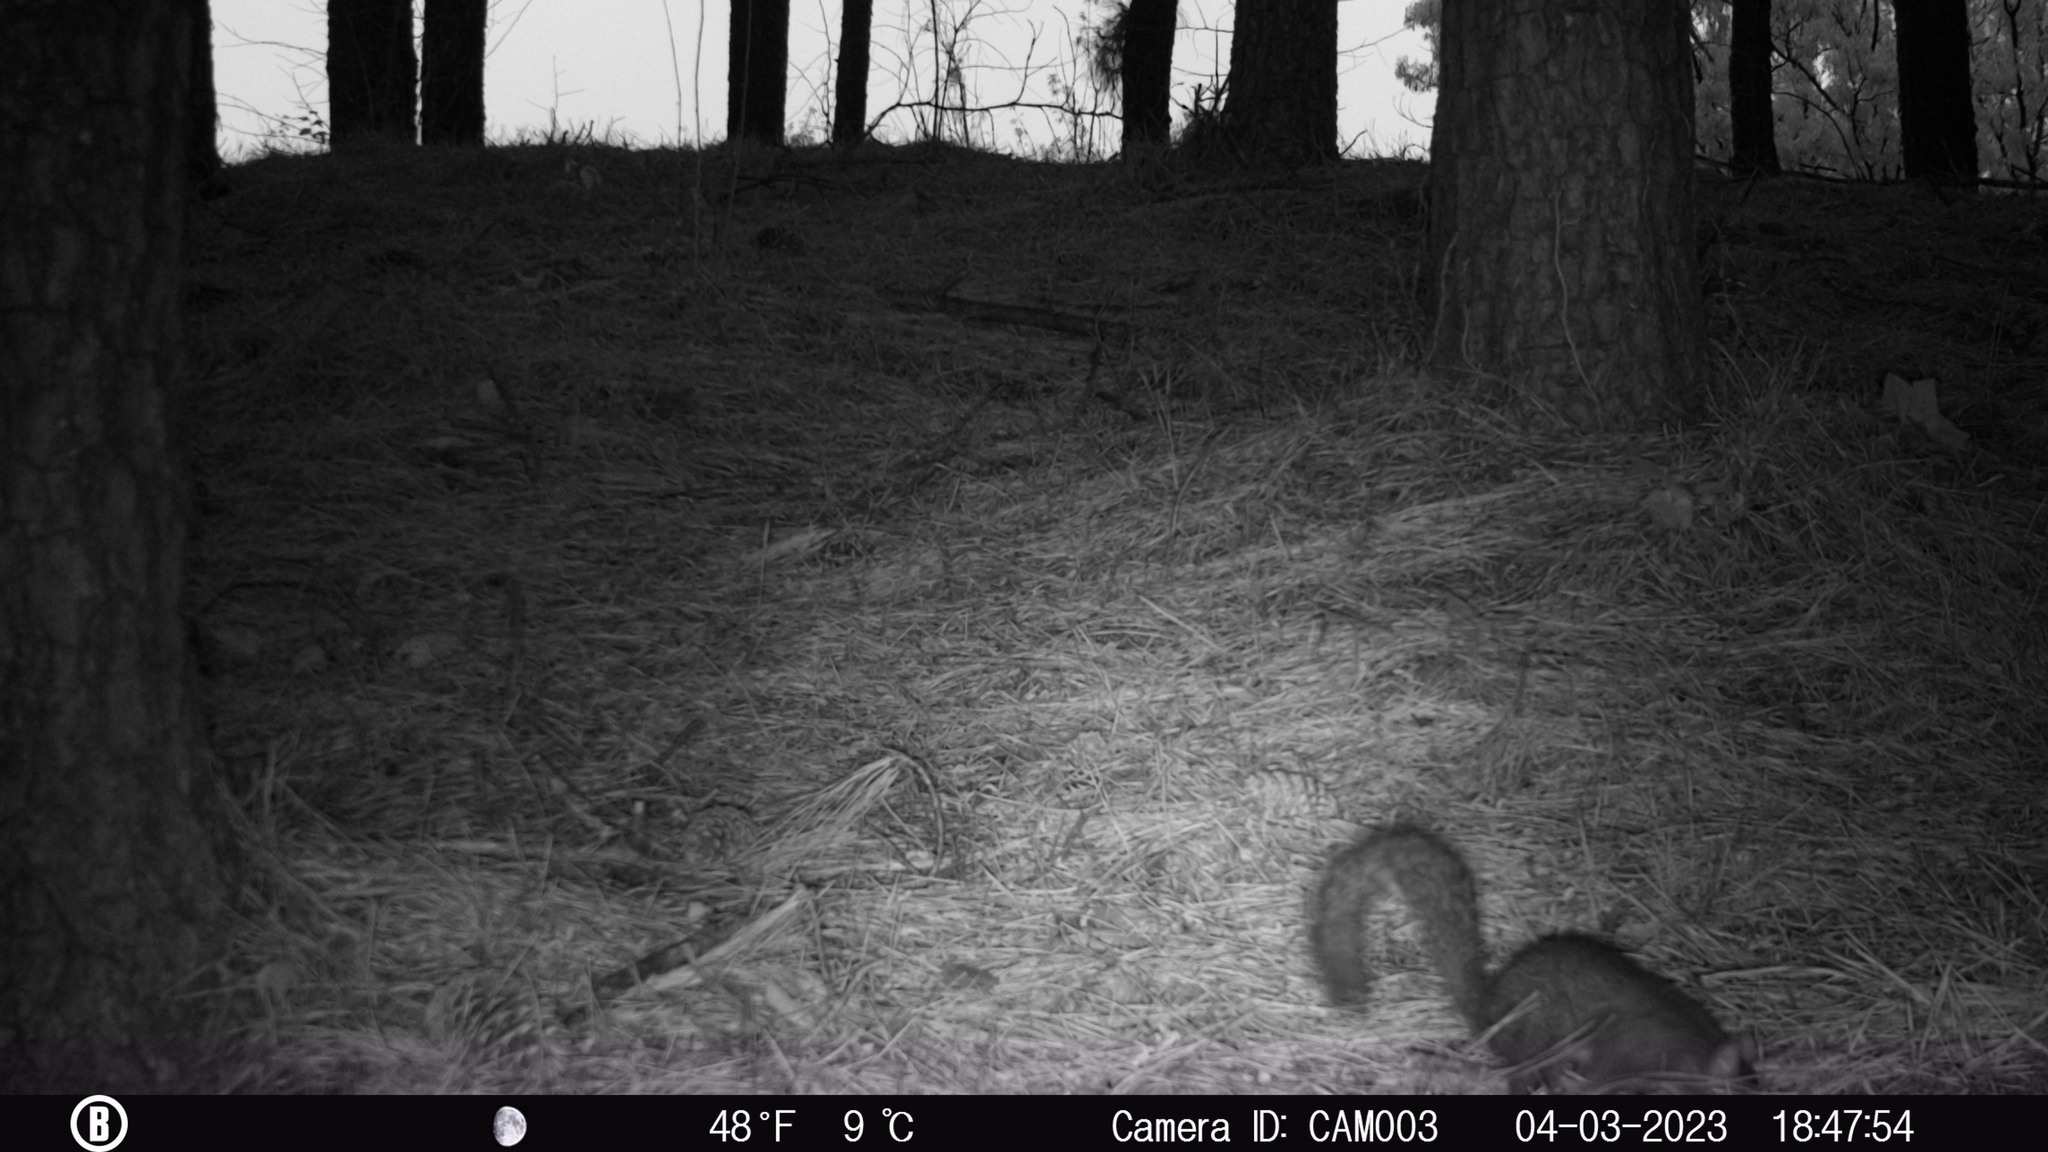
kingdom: Animalia
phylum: Chordata
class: Mammalia
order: Rodentia
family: Sciuridae
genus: Sciurus
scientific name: Sciurus carolinensis
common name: Eastern gray squirrel
